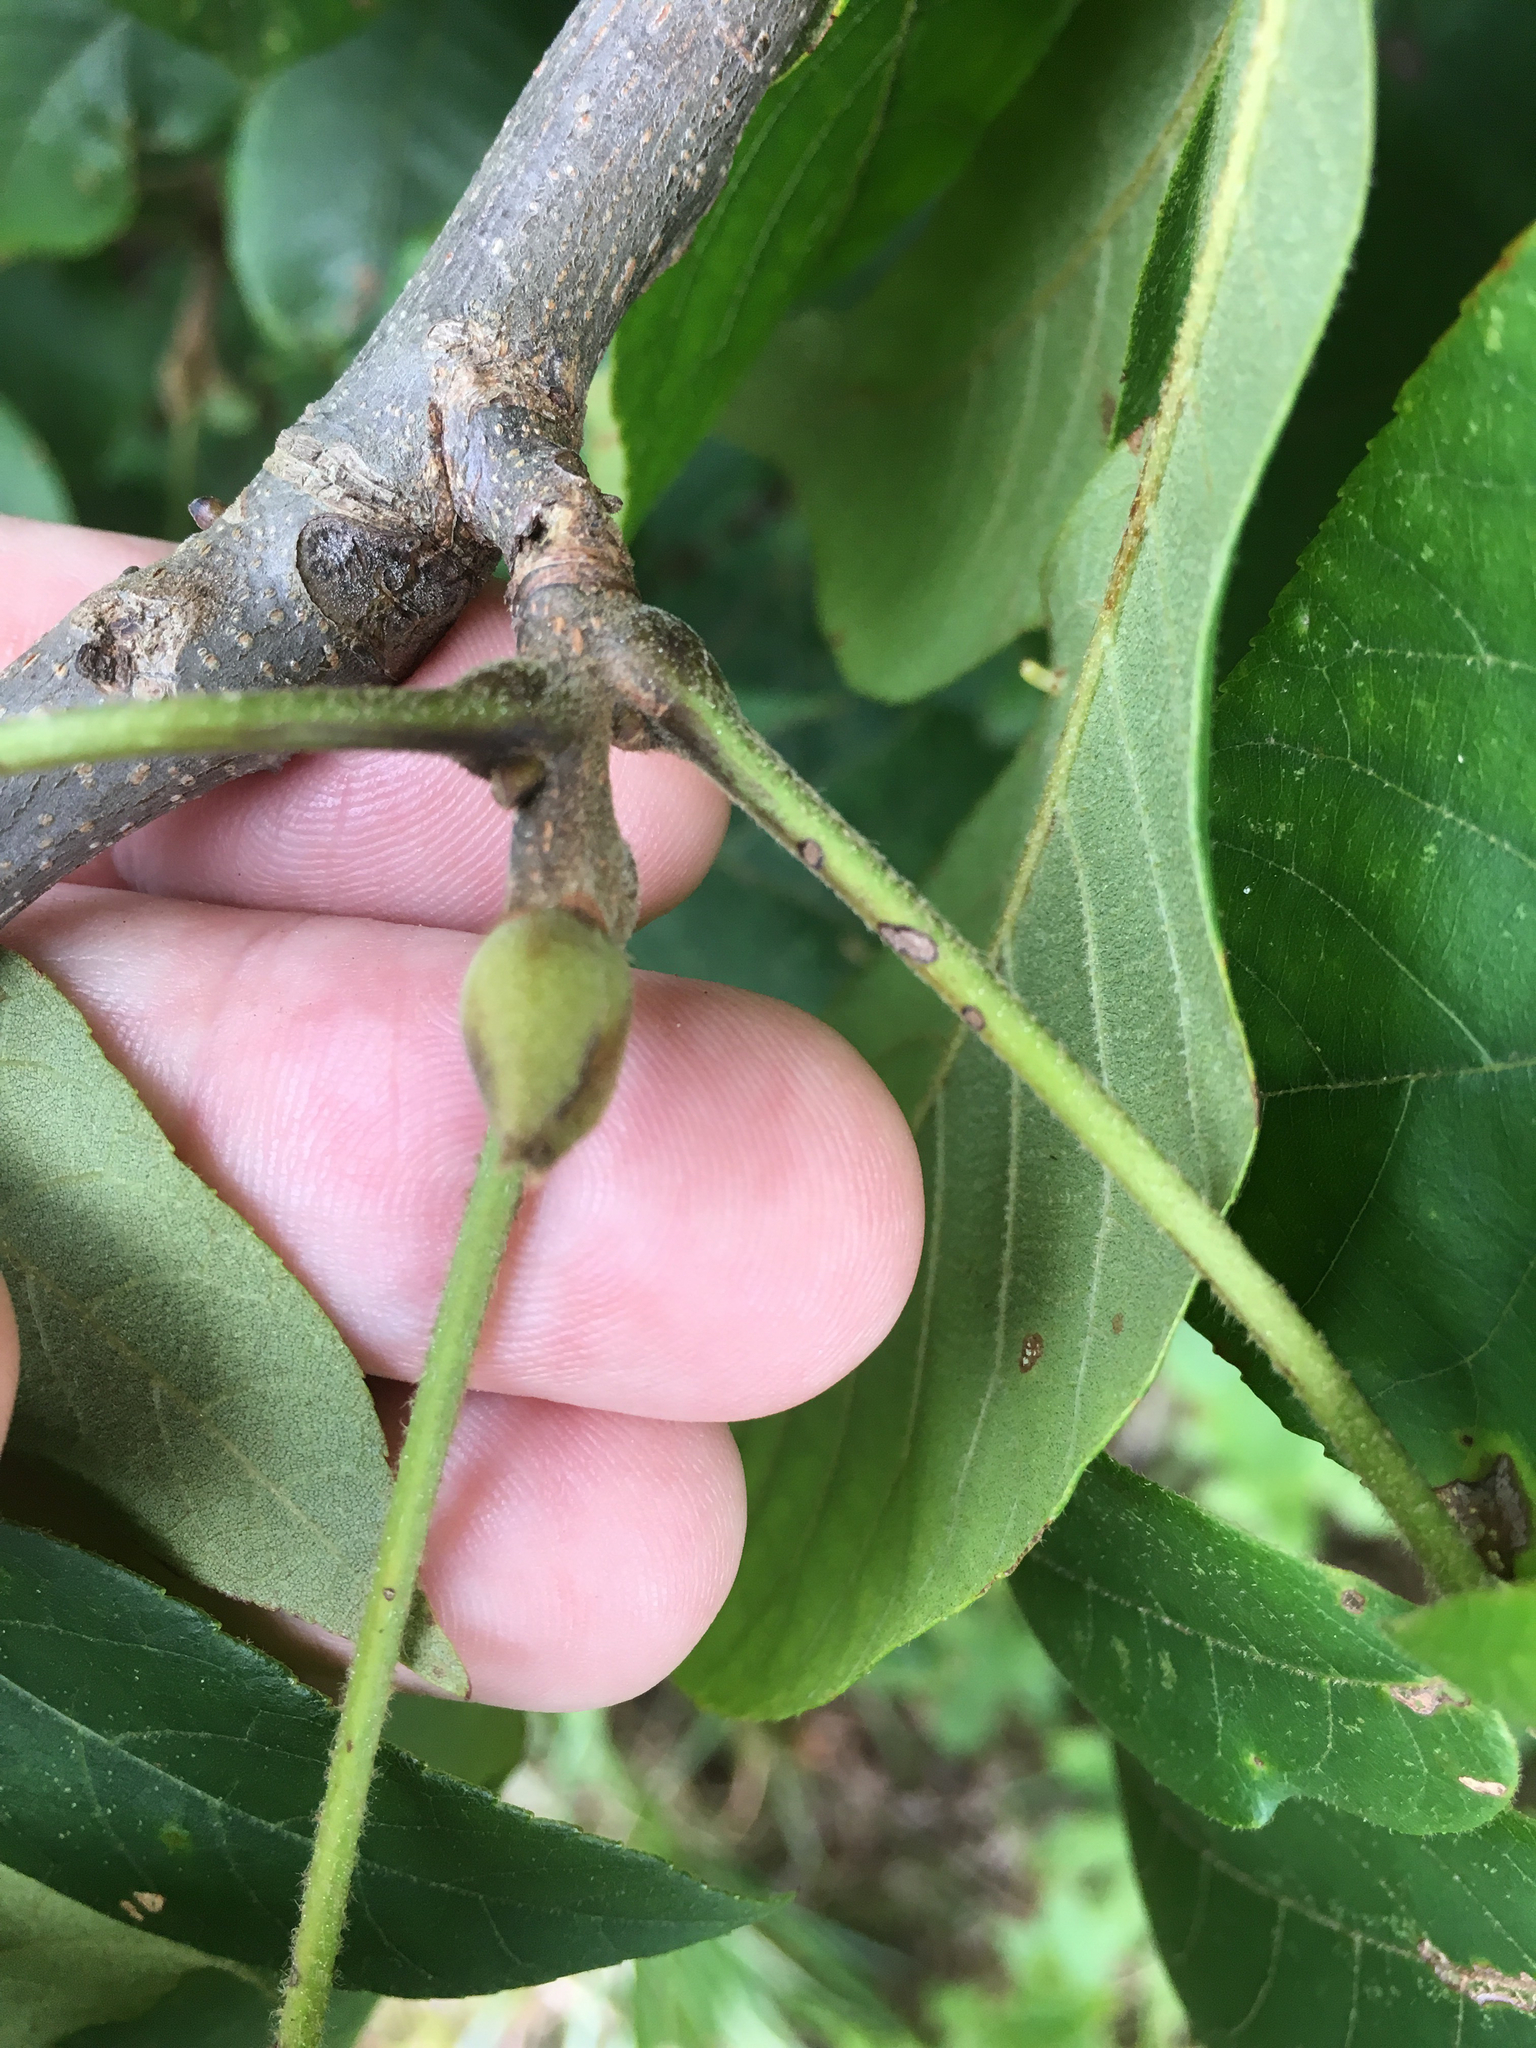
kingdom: Plantae
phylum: Tracheophyta
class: Magnoliopsida
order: Fagales
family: Juglandaceae
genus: Carya
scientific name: Carya alba
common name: Mockernut hickory
